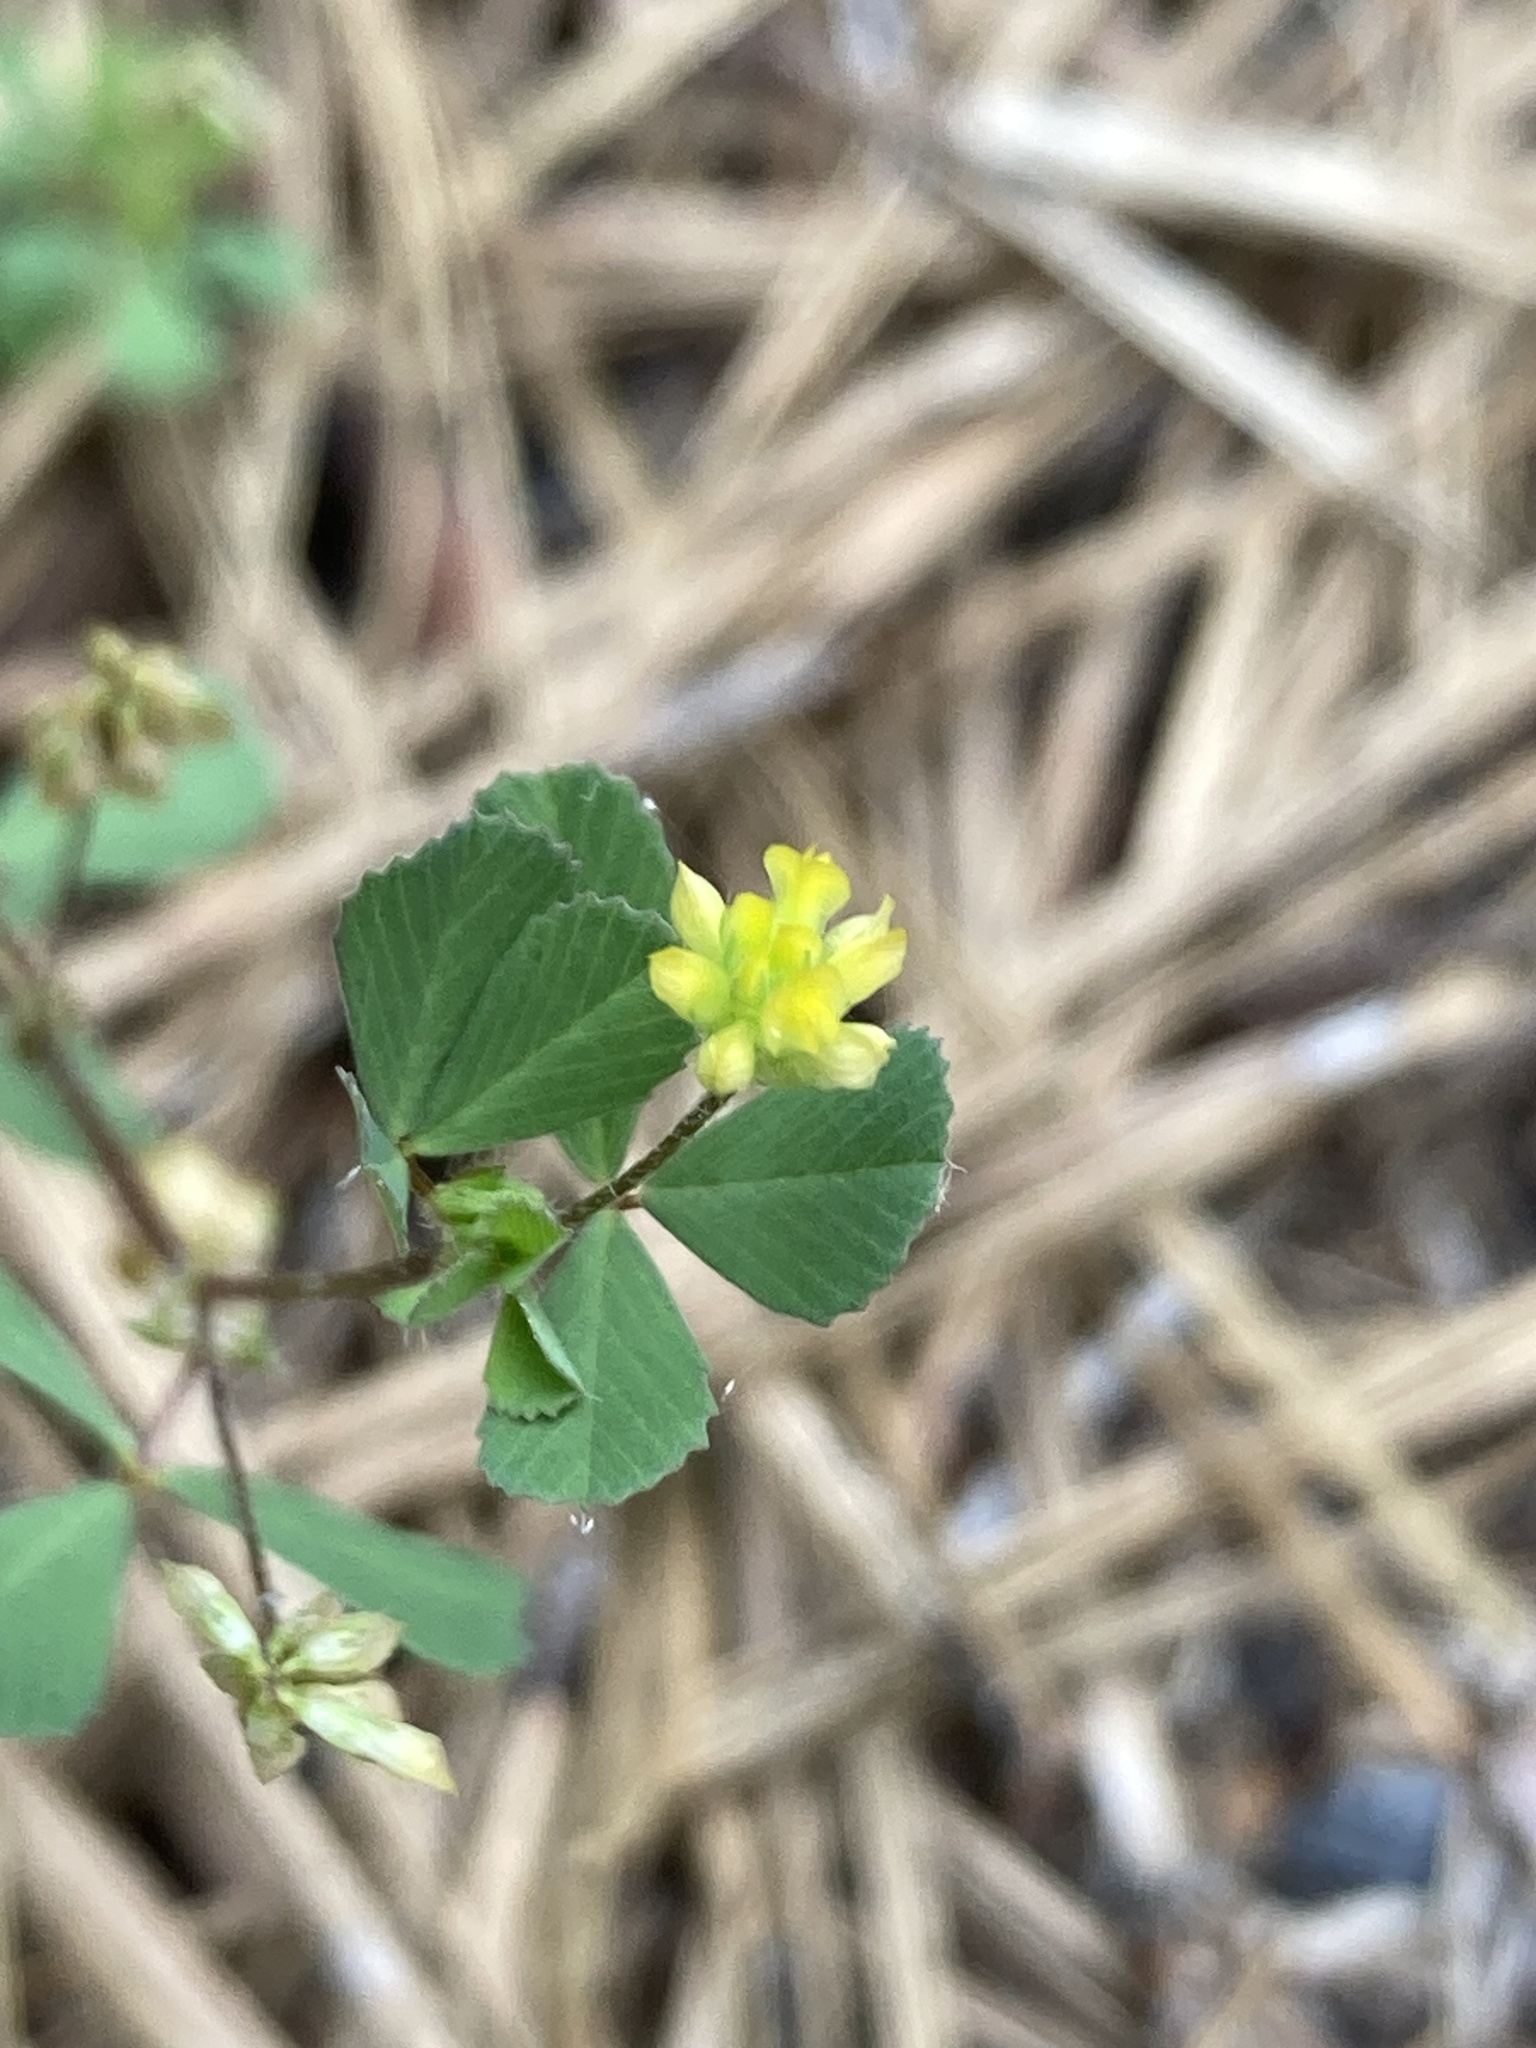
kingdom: Plantae
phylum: Tracheophyta
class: Magnoliopsida
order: Fabales
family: Fabaceae
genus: Trifolium
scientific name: Trifolium dubium
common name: Suckling clover
